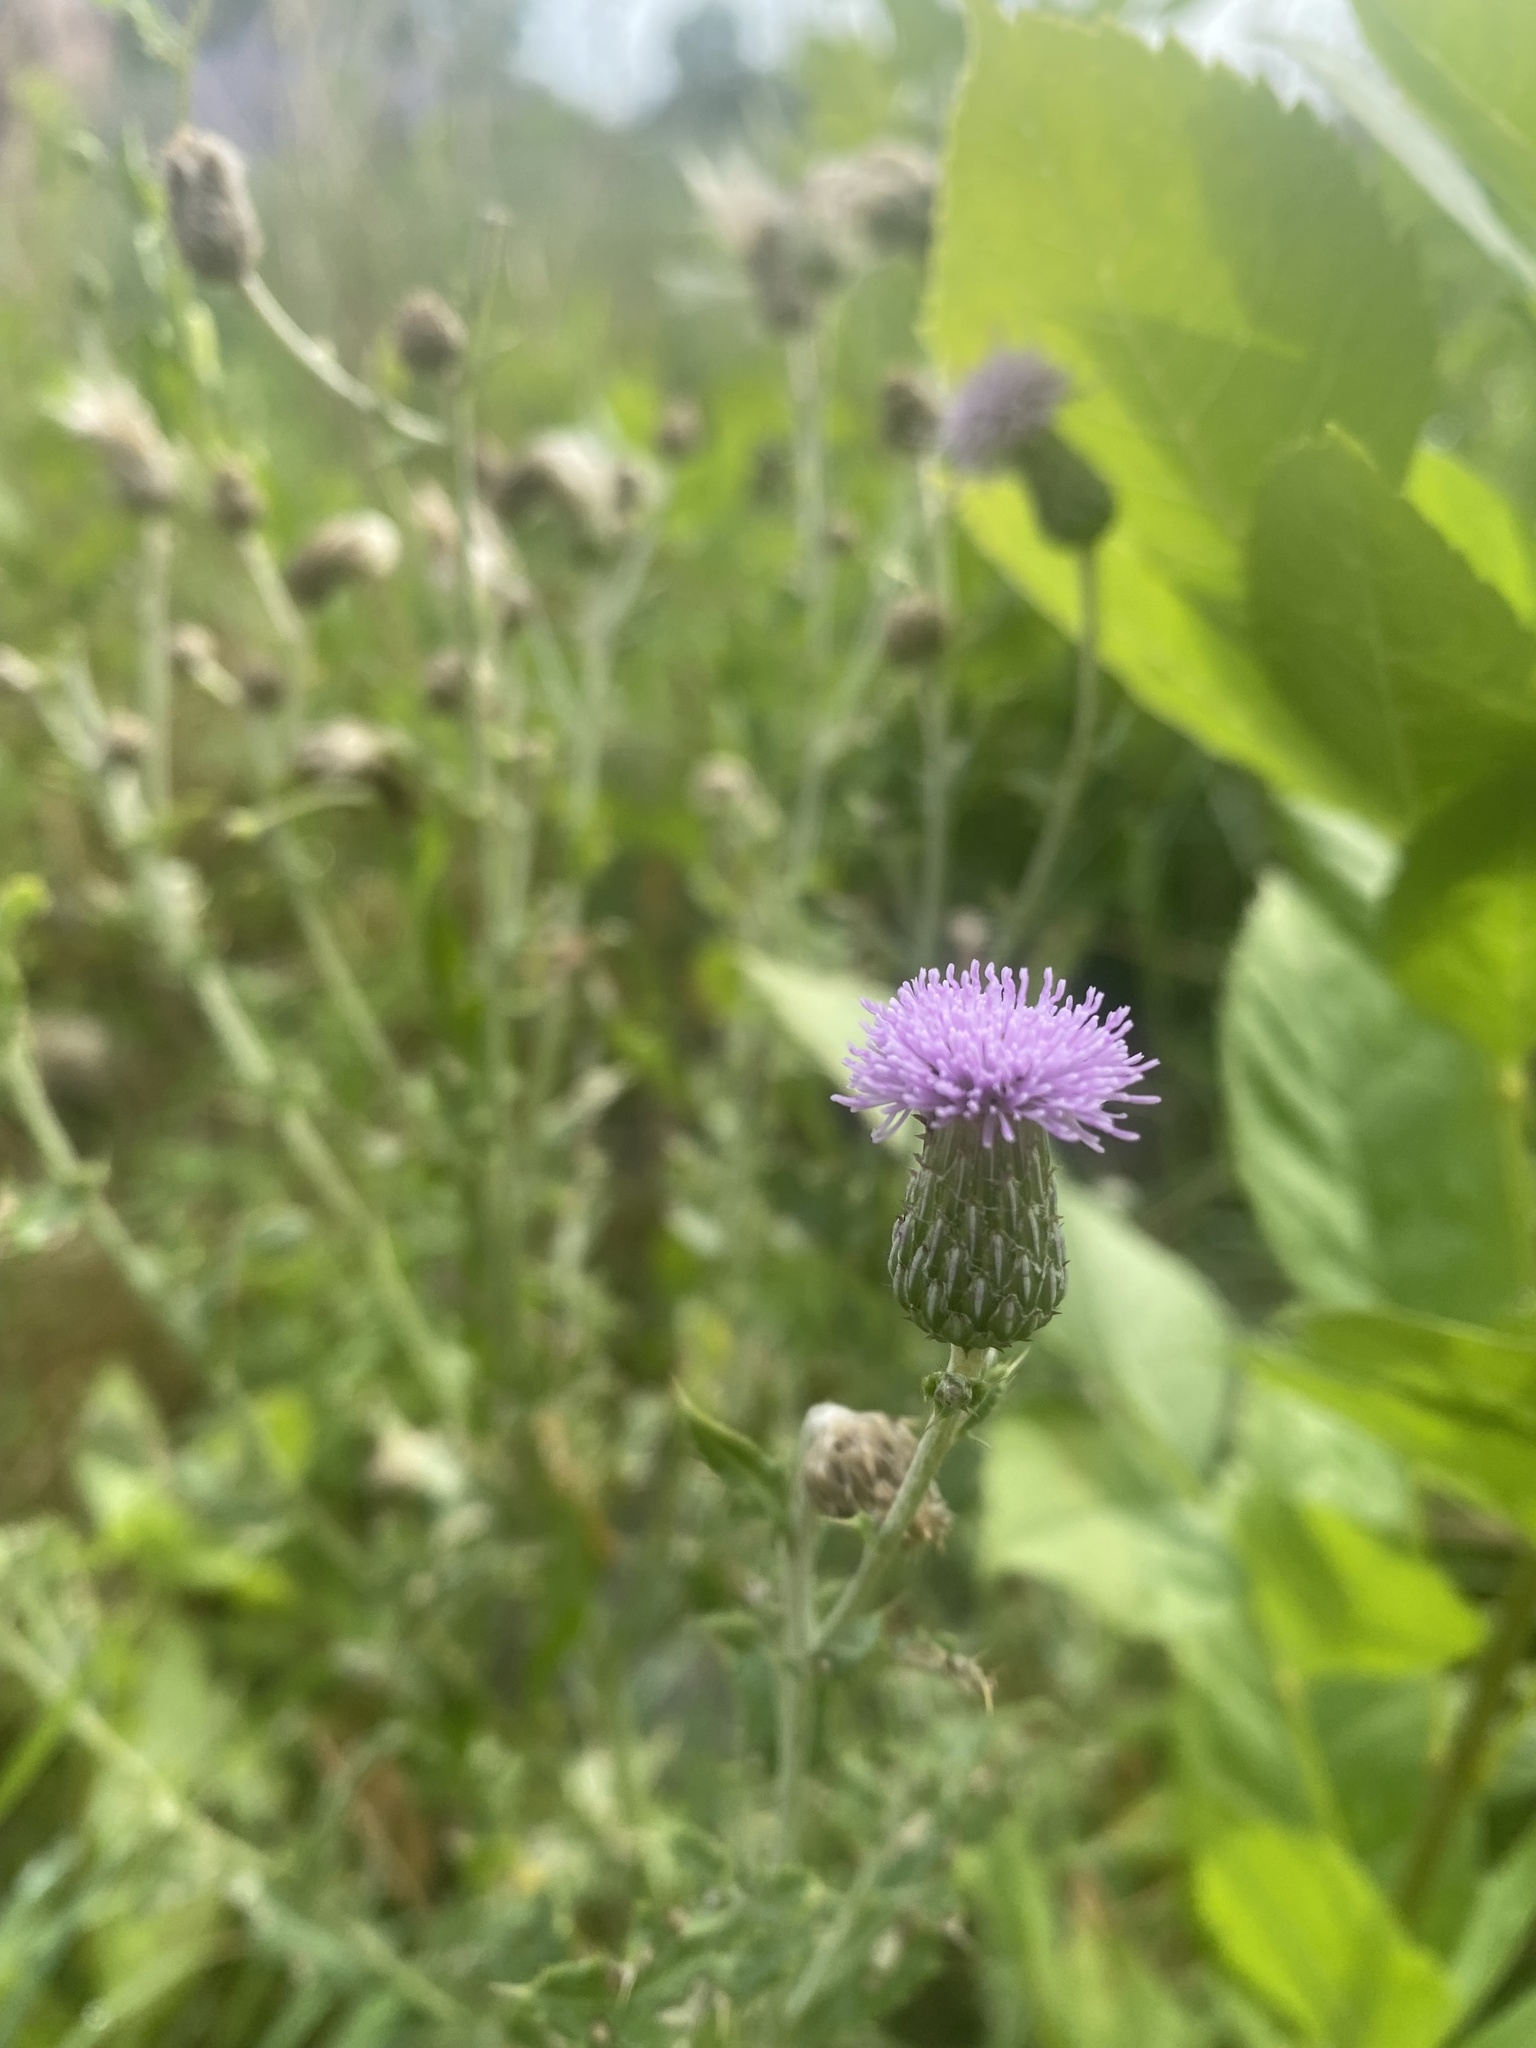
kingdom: Plantae
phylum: Tracheophyta
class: Magnoliopsida
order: Asterales
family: Asteraceae
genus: Cirsium
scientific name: Cirsium arvense
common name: Creeping thistle
